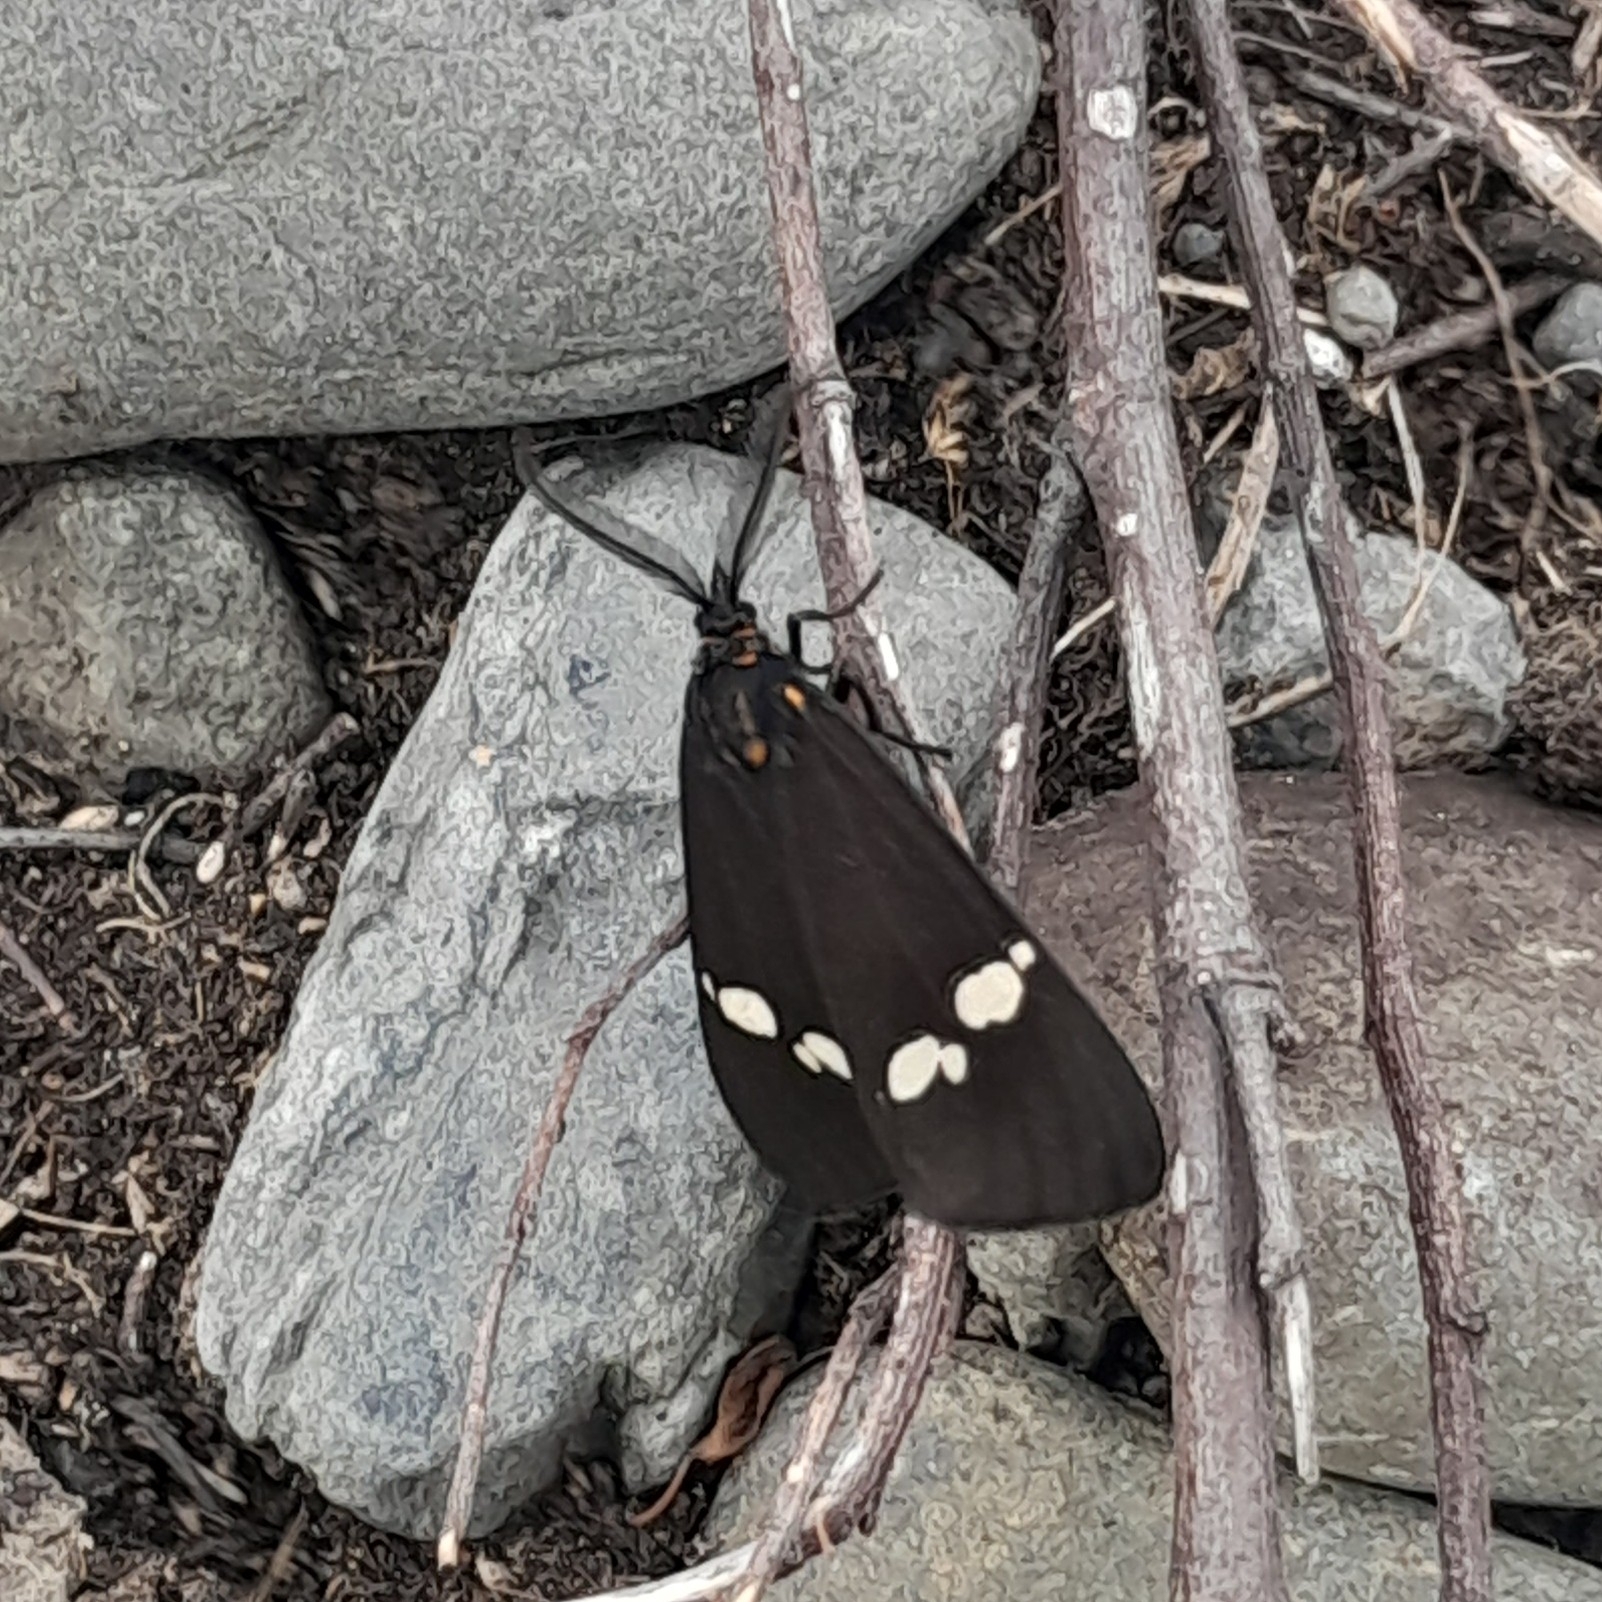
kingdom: Animalia
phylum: Arthropoda
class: Insecta
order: Lepidoptera
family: Erebidae
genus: Nyctemera
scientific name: Nyctemera annulatum
